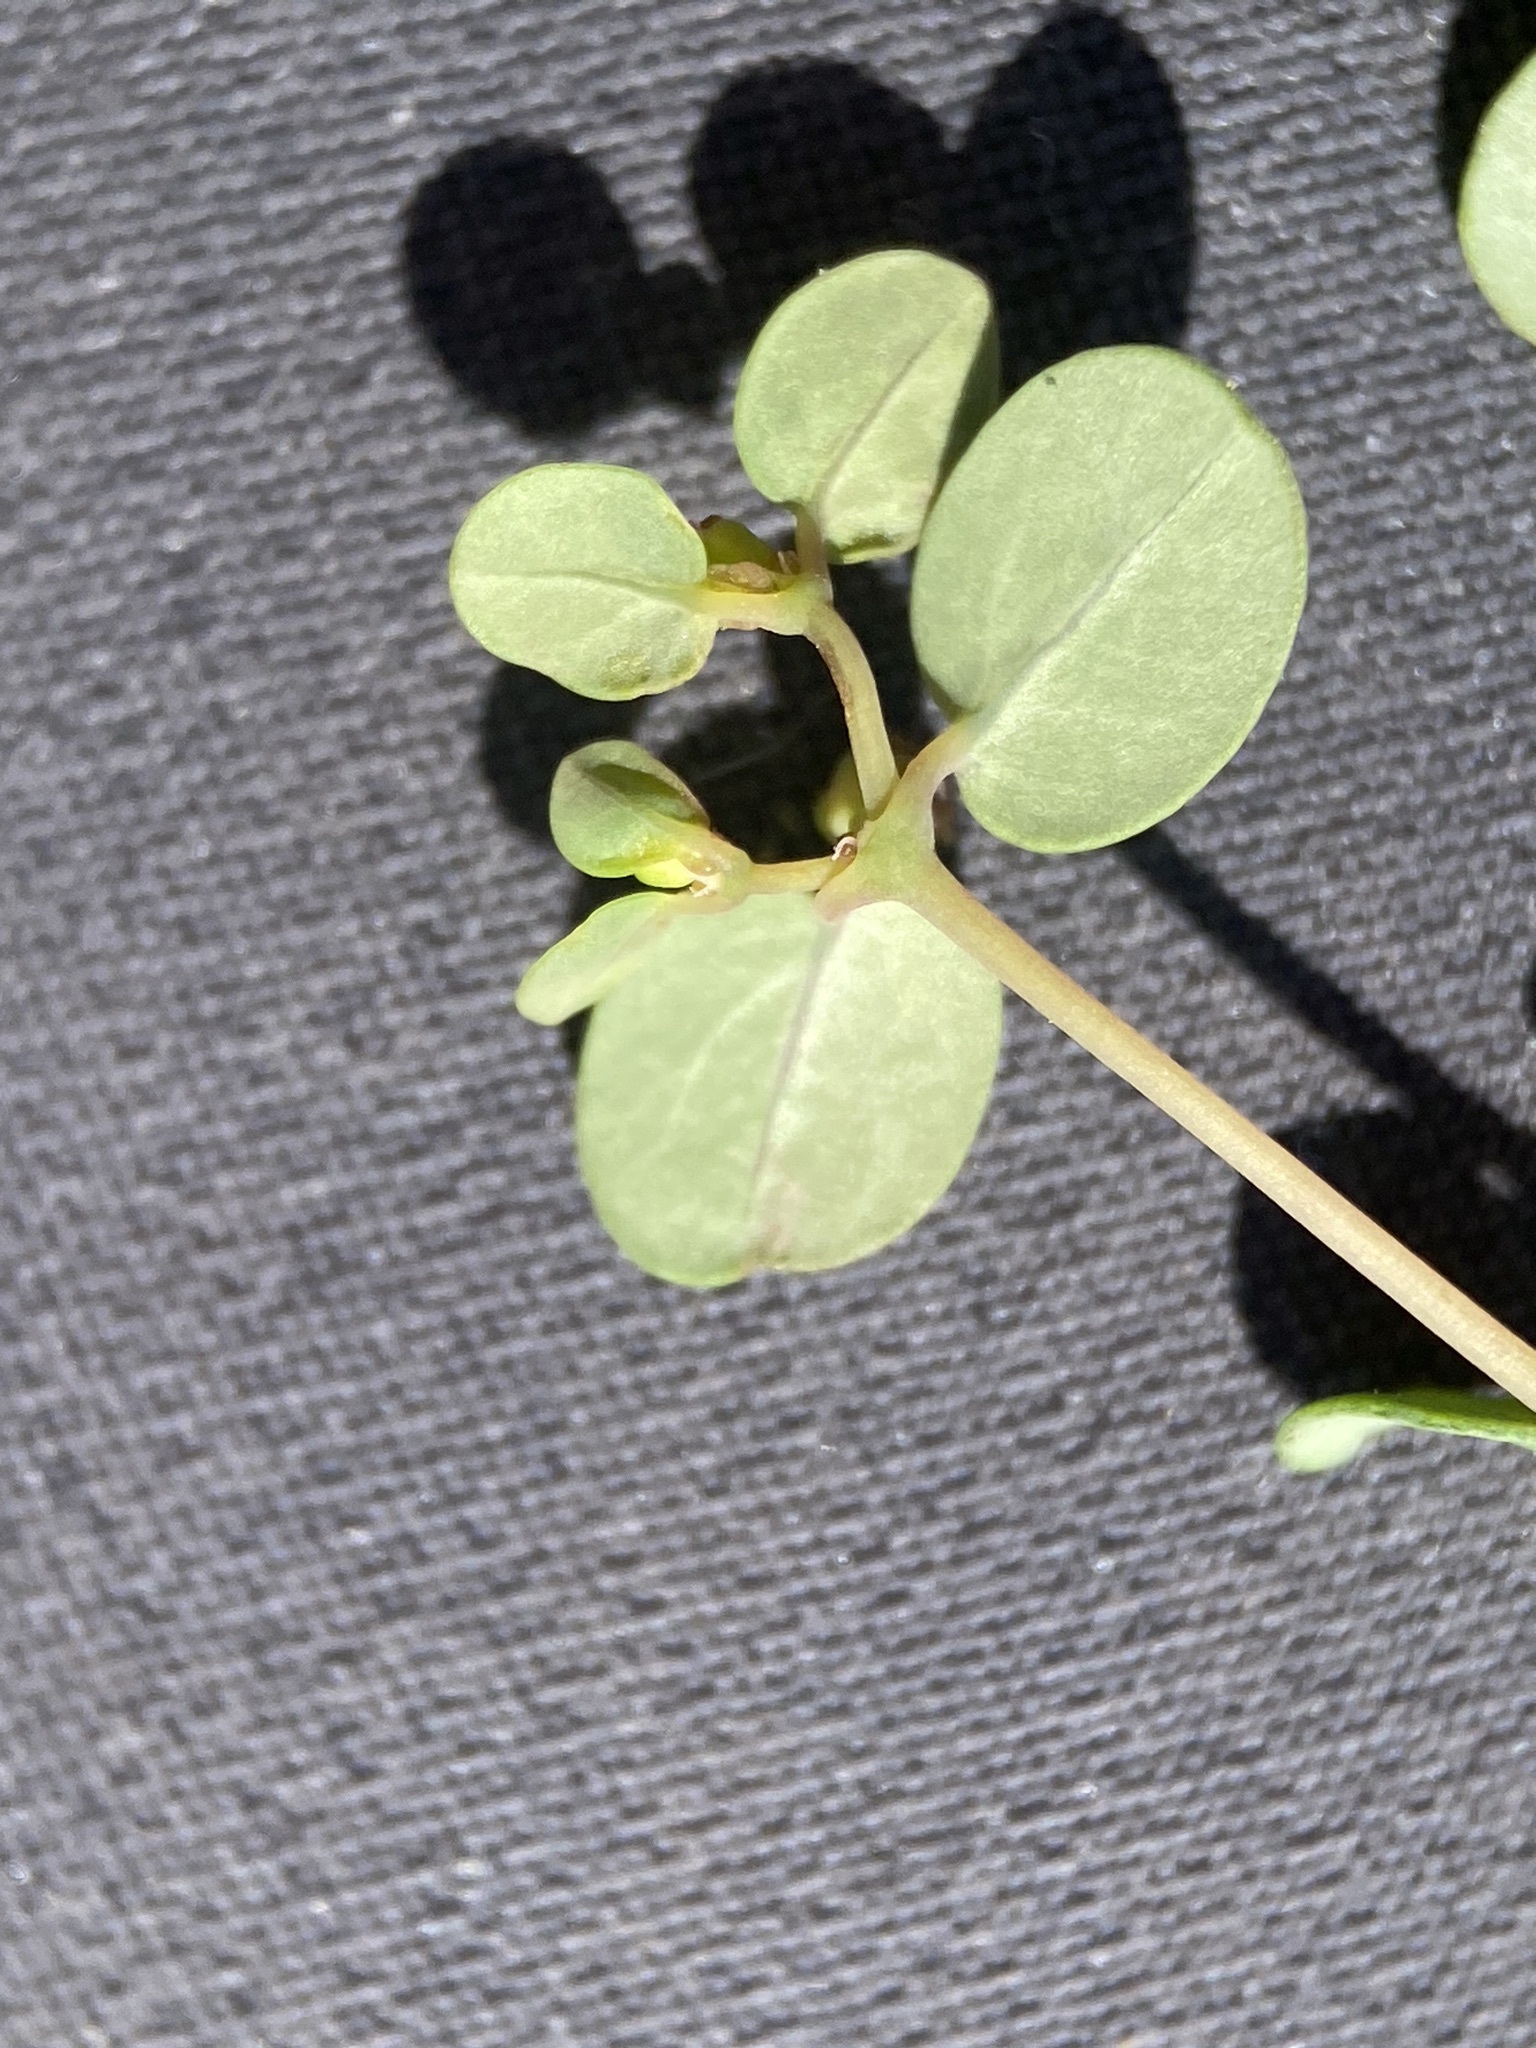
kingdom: Plantae
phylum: Tracheophyta
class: Magnoliopsida
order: Malpighiales
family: Euphorbiaceae
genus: Euphorbia
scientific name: Euphorbia simulans
